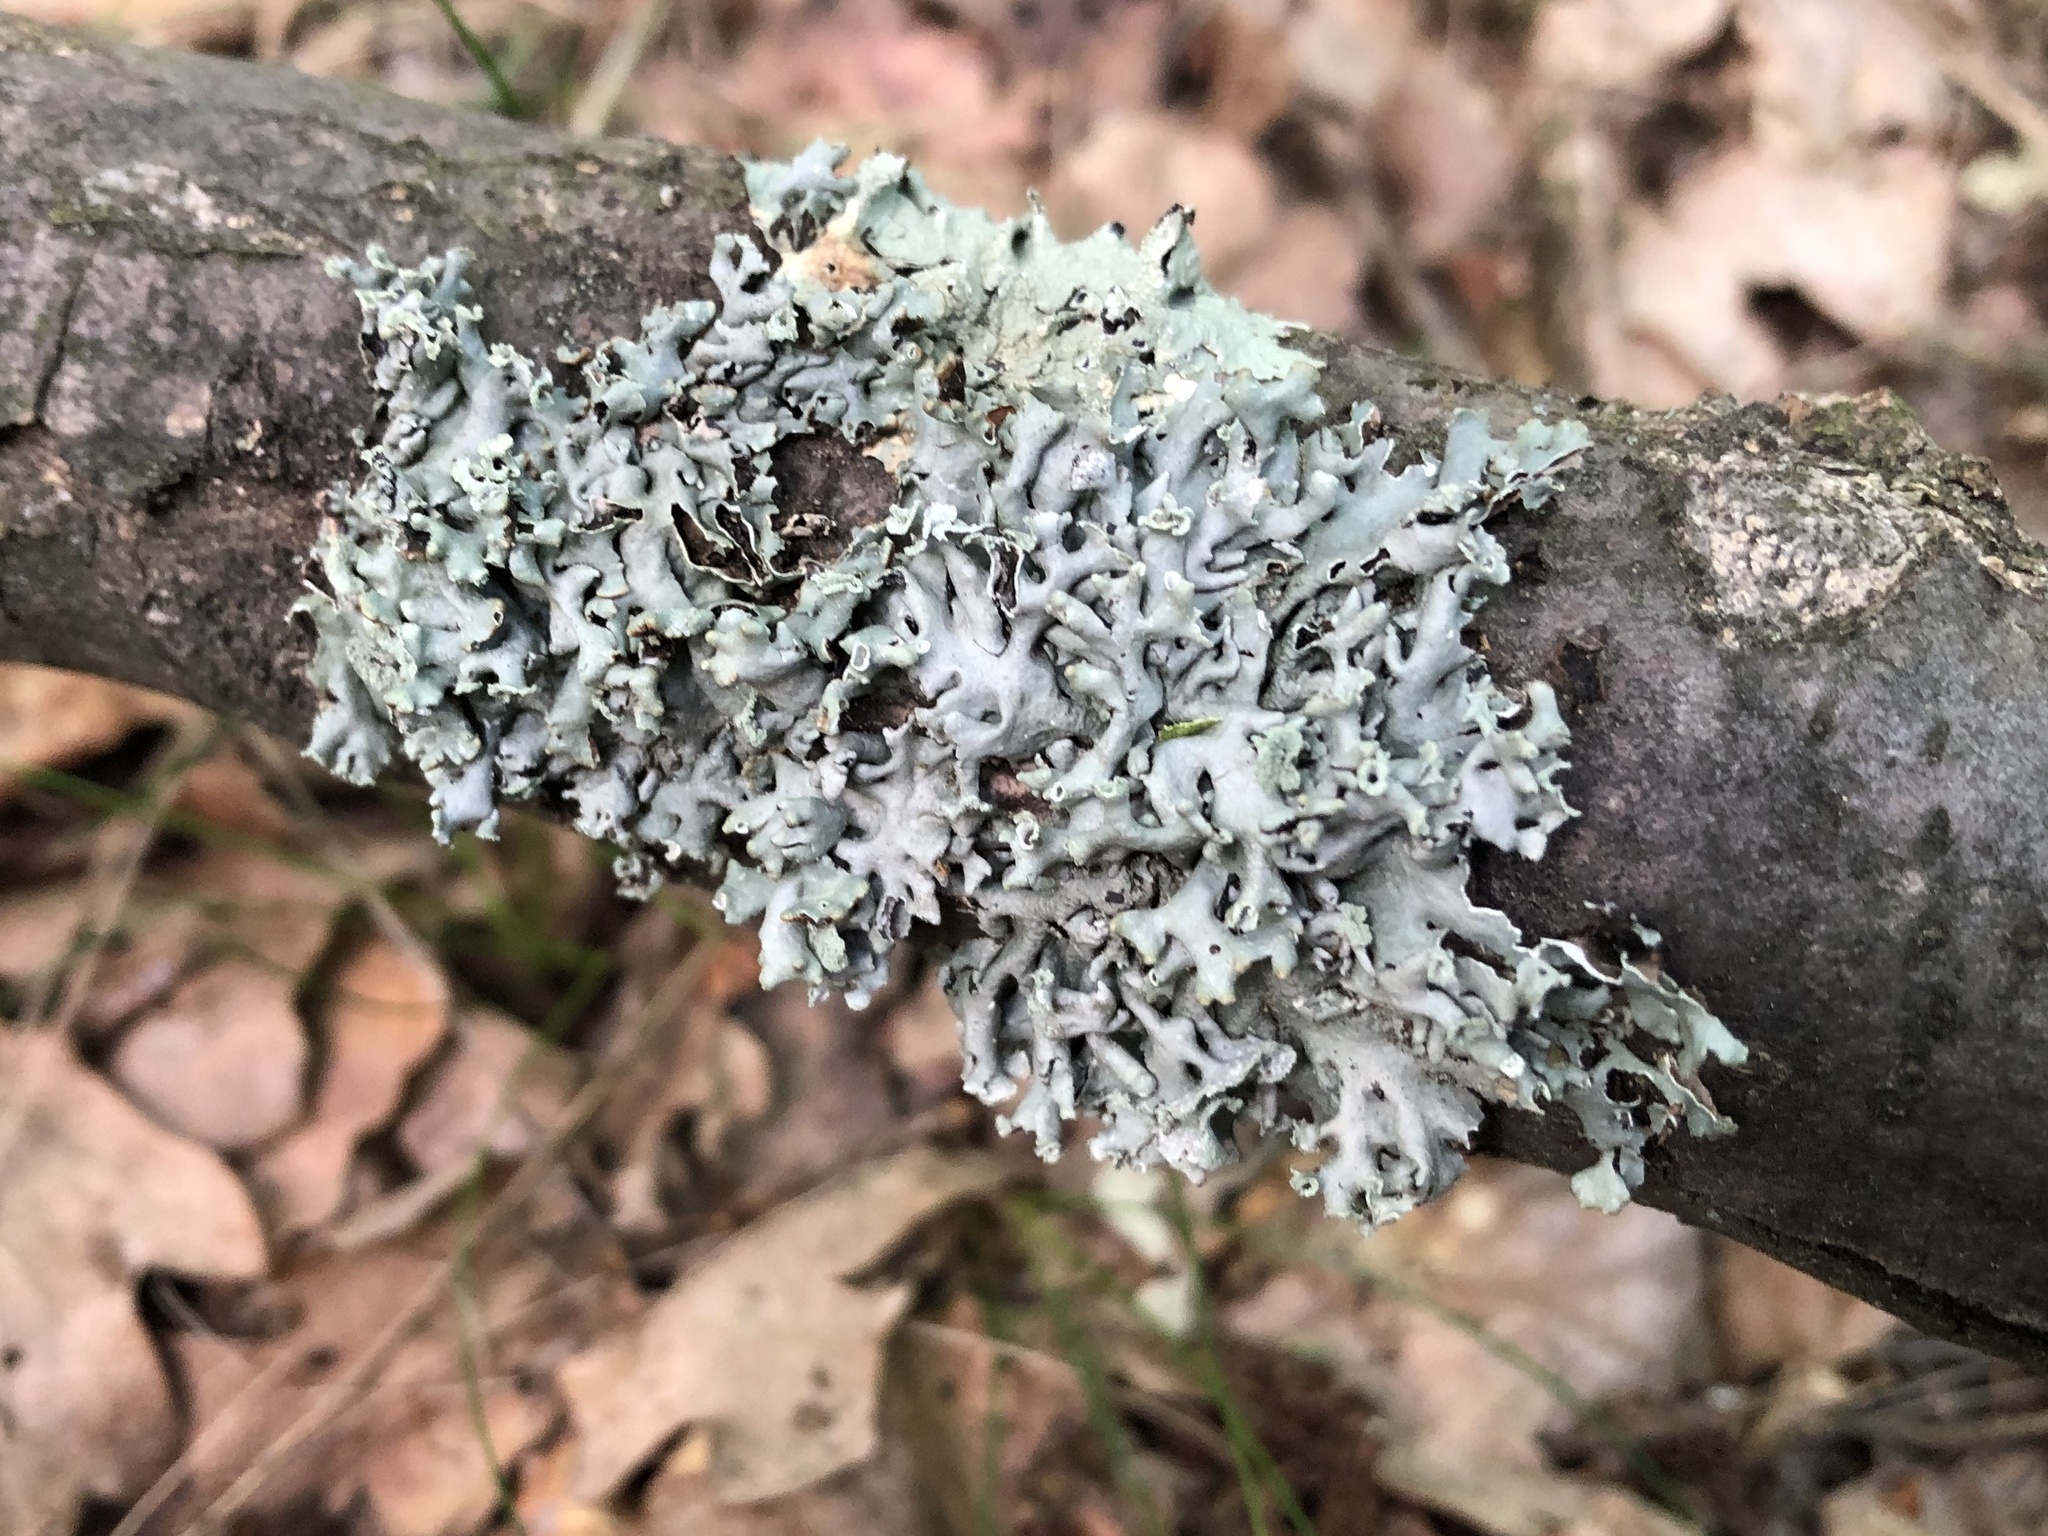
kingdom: Fungi
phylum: Ascomycota
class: Lecanoromycetes
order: Lecanorales
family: Parmeliaceae
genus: Hypogymnia
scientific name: Hypogymnia physodes
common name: Dark crottle
